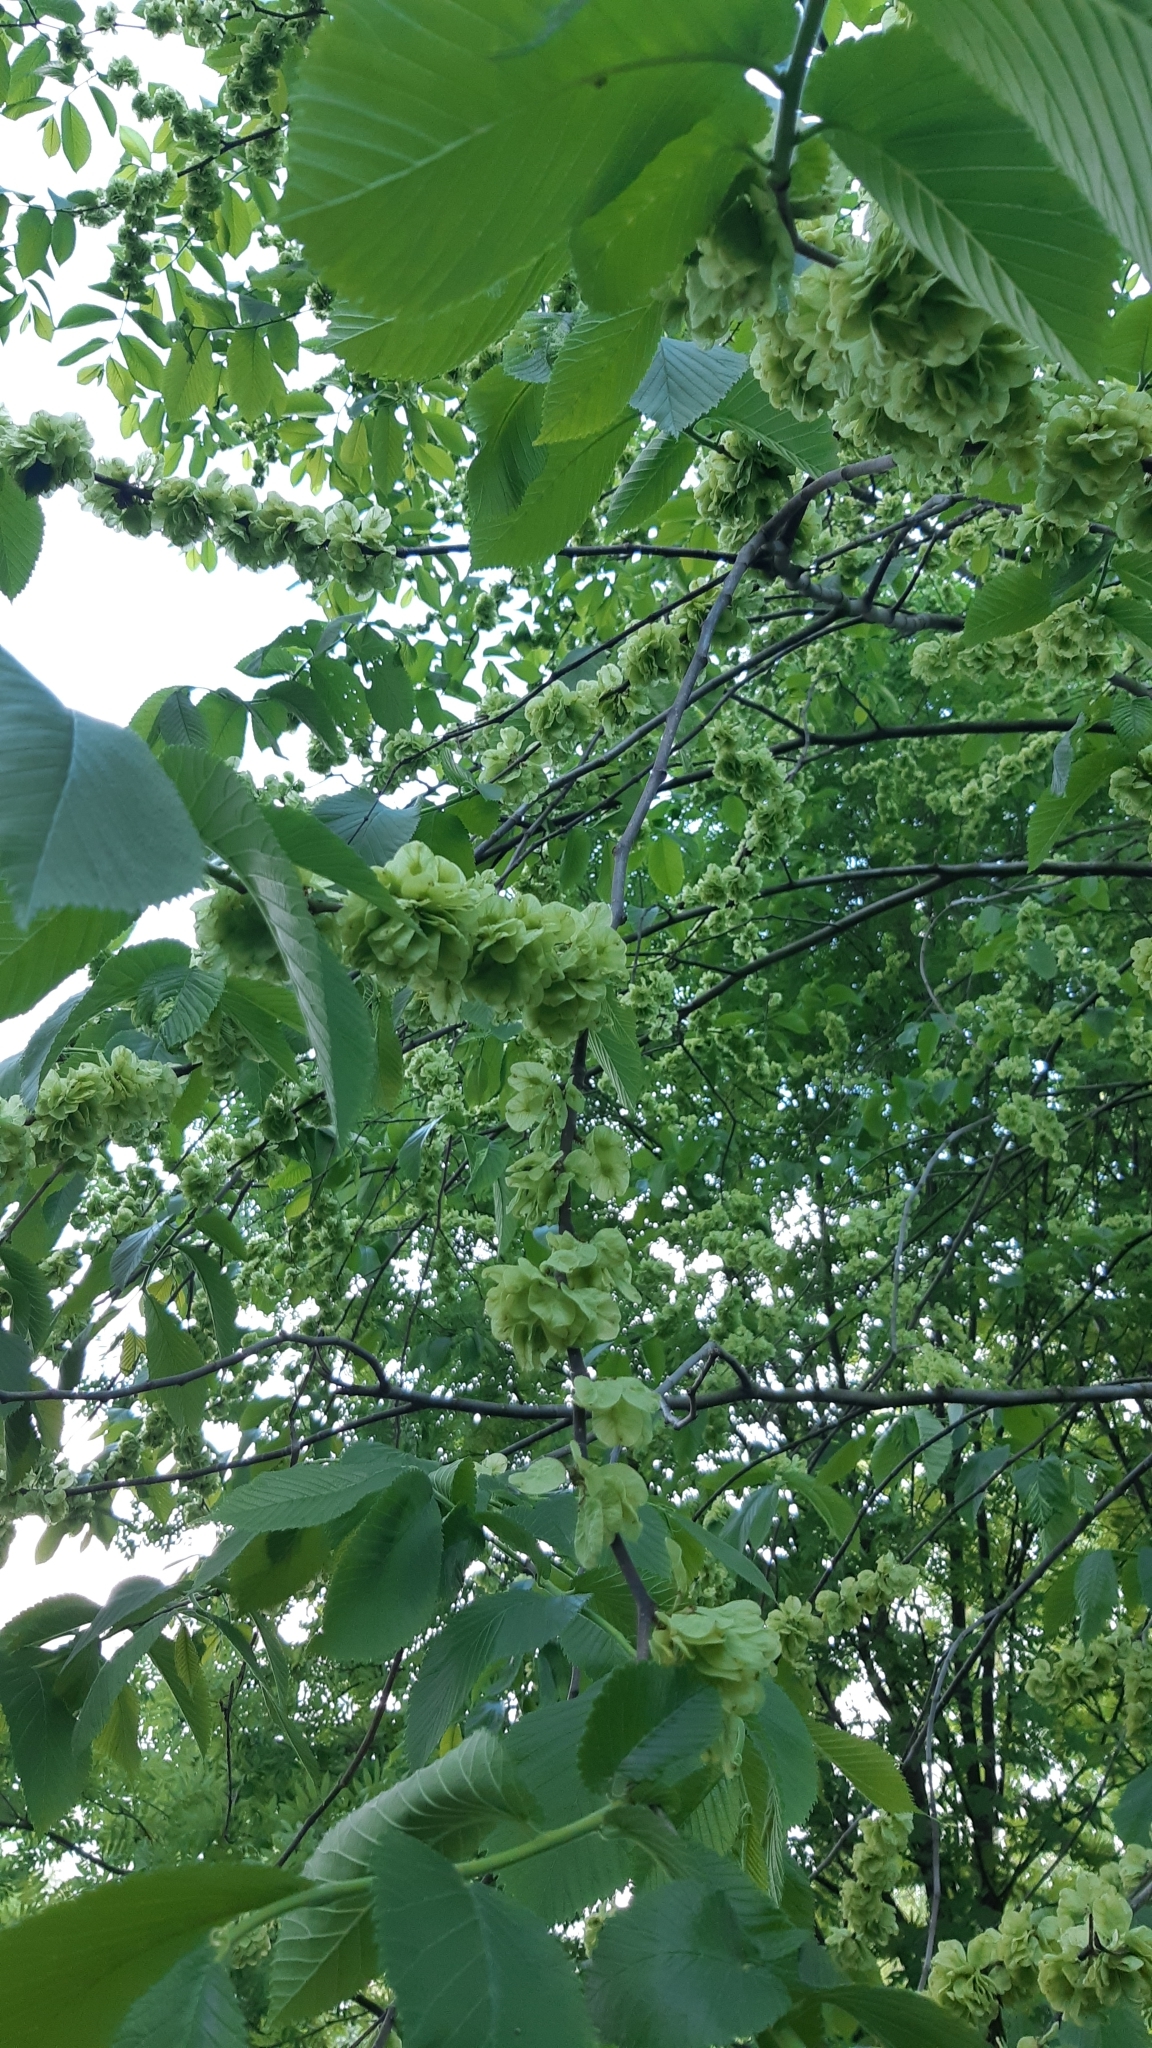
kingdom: Plantae
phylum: Tracheophyta
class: Magnoliopsida
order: Rosales
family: Ulmaceae
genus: Ulmus
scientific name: Ulmus glabra
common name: Wych elm
